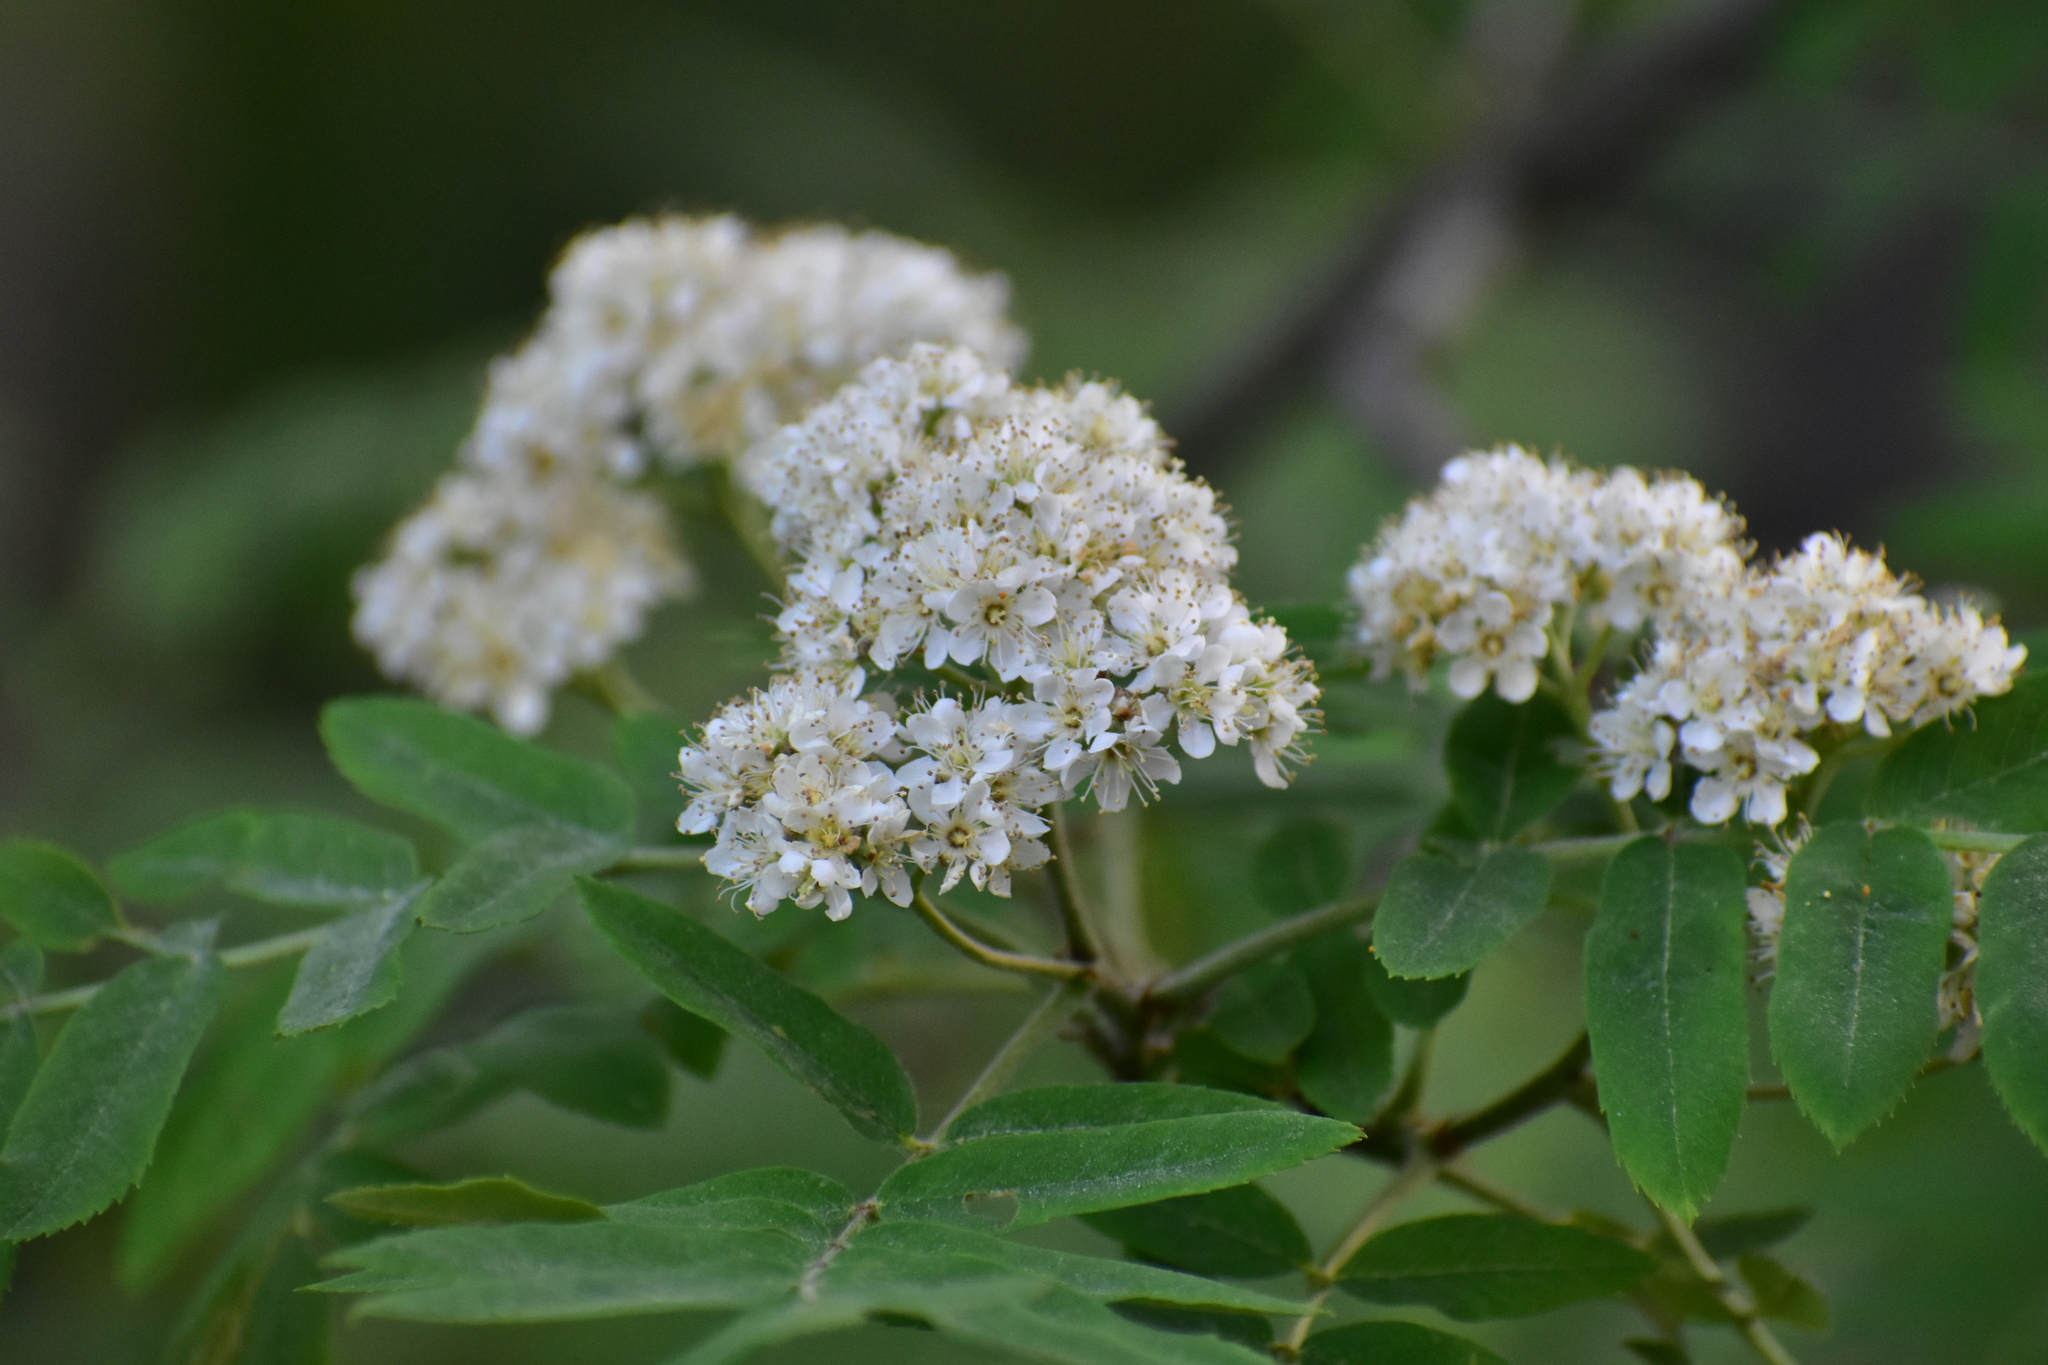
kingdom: Plantae
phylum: Tracheophyta
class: Magnoliopsida
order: Rosales
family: Rosaceae
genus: Sorbus
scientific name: Sorbus aucuparia
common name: Rowan
